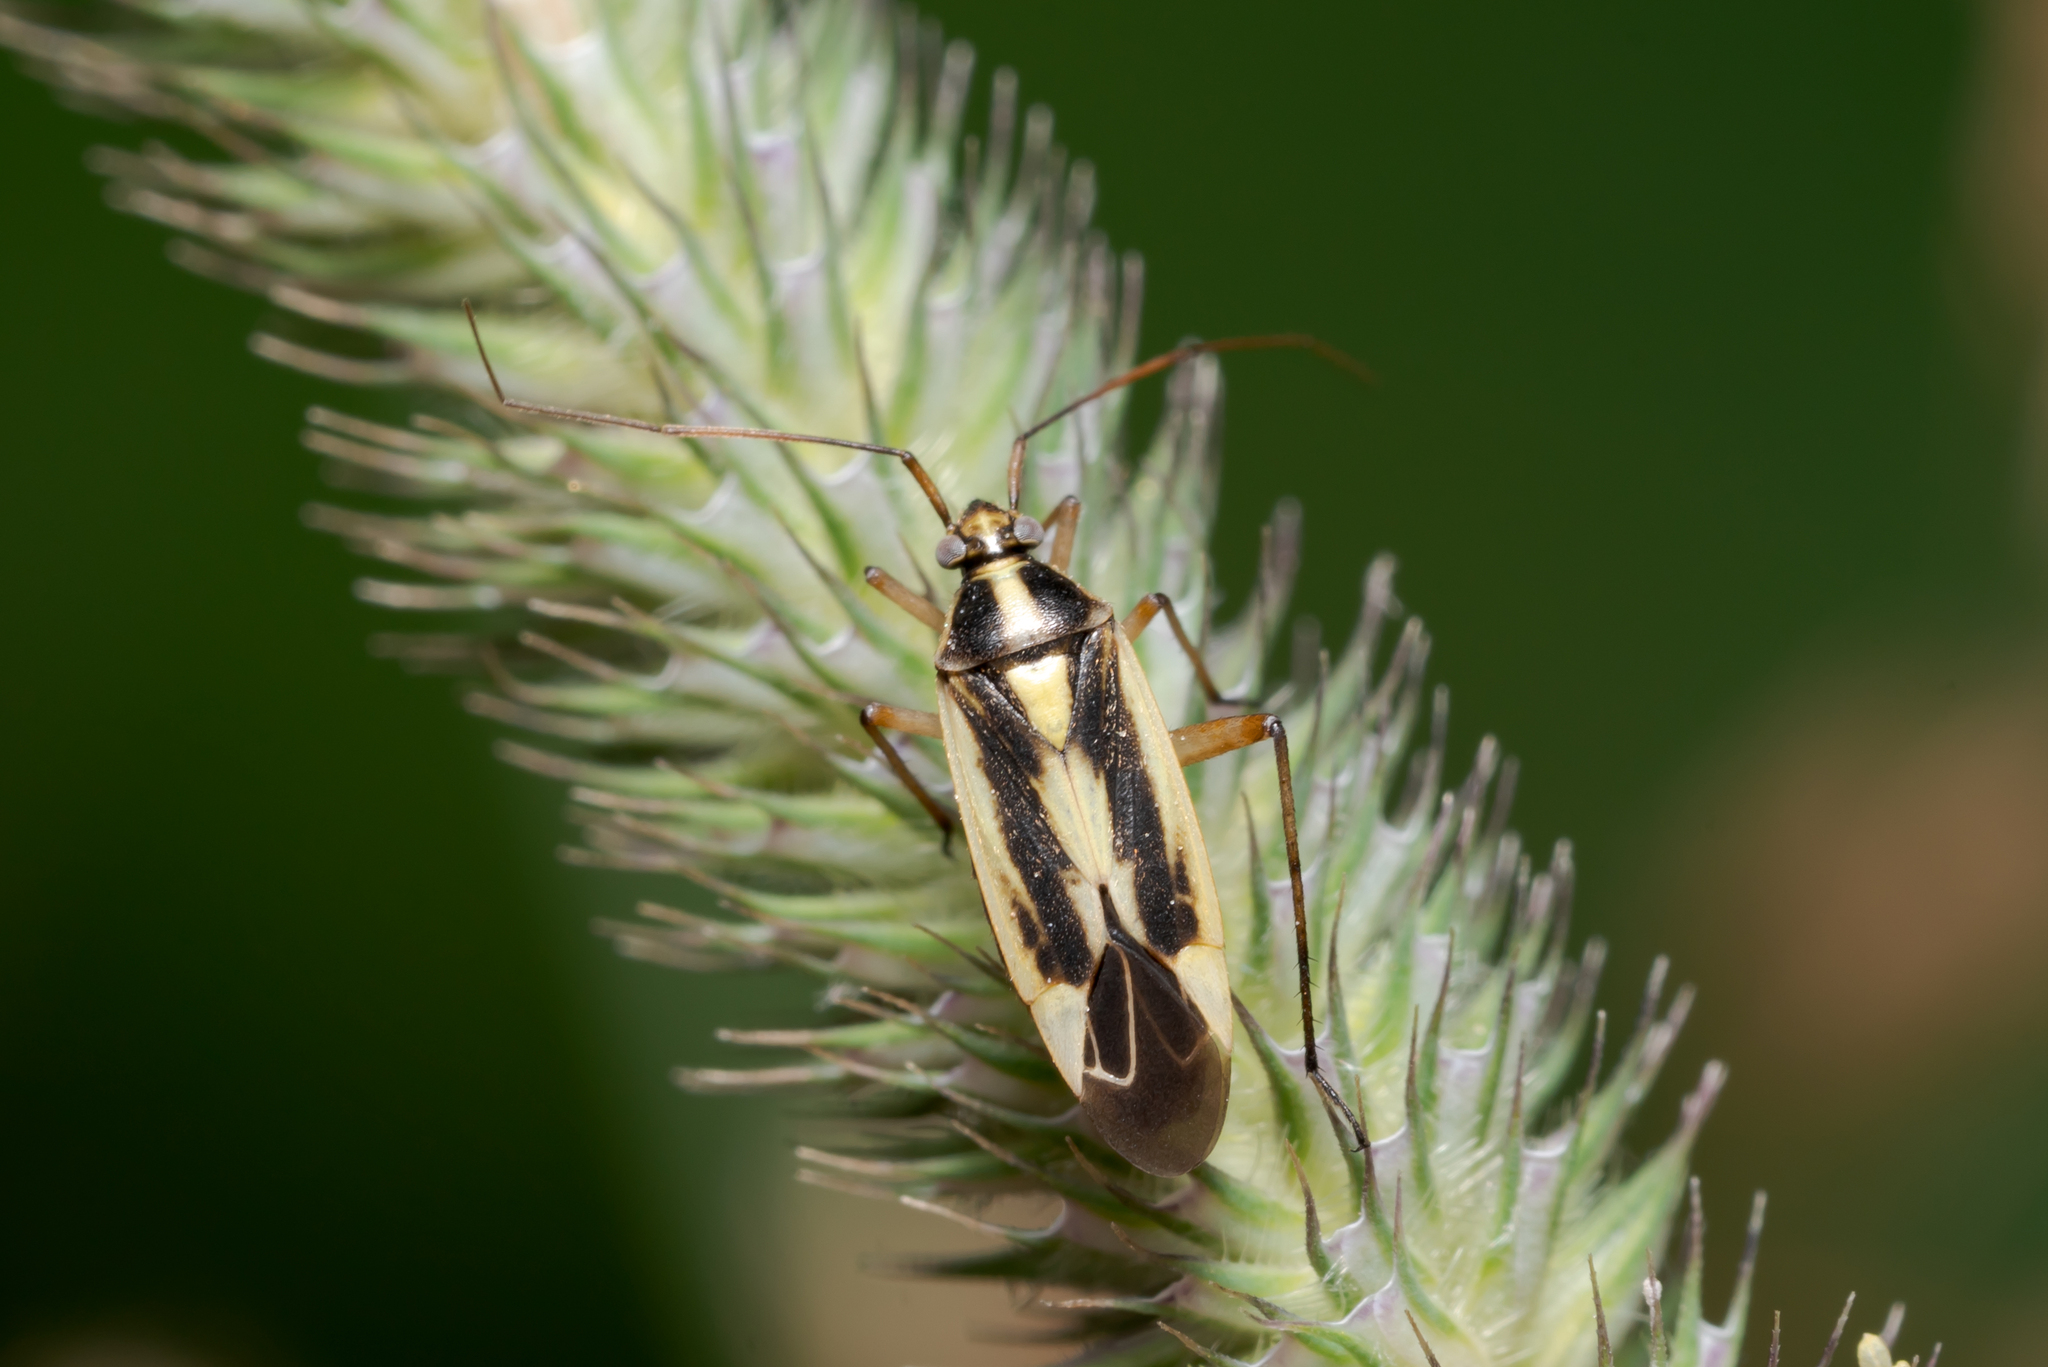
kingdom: Animalia
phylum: Arthropoda
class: Insecta
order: Hemiptera
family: Miridae
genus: Stenotus
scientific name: Stenotus binotatus
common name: Plant bug
